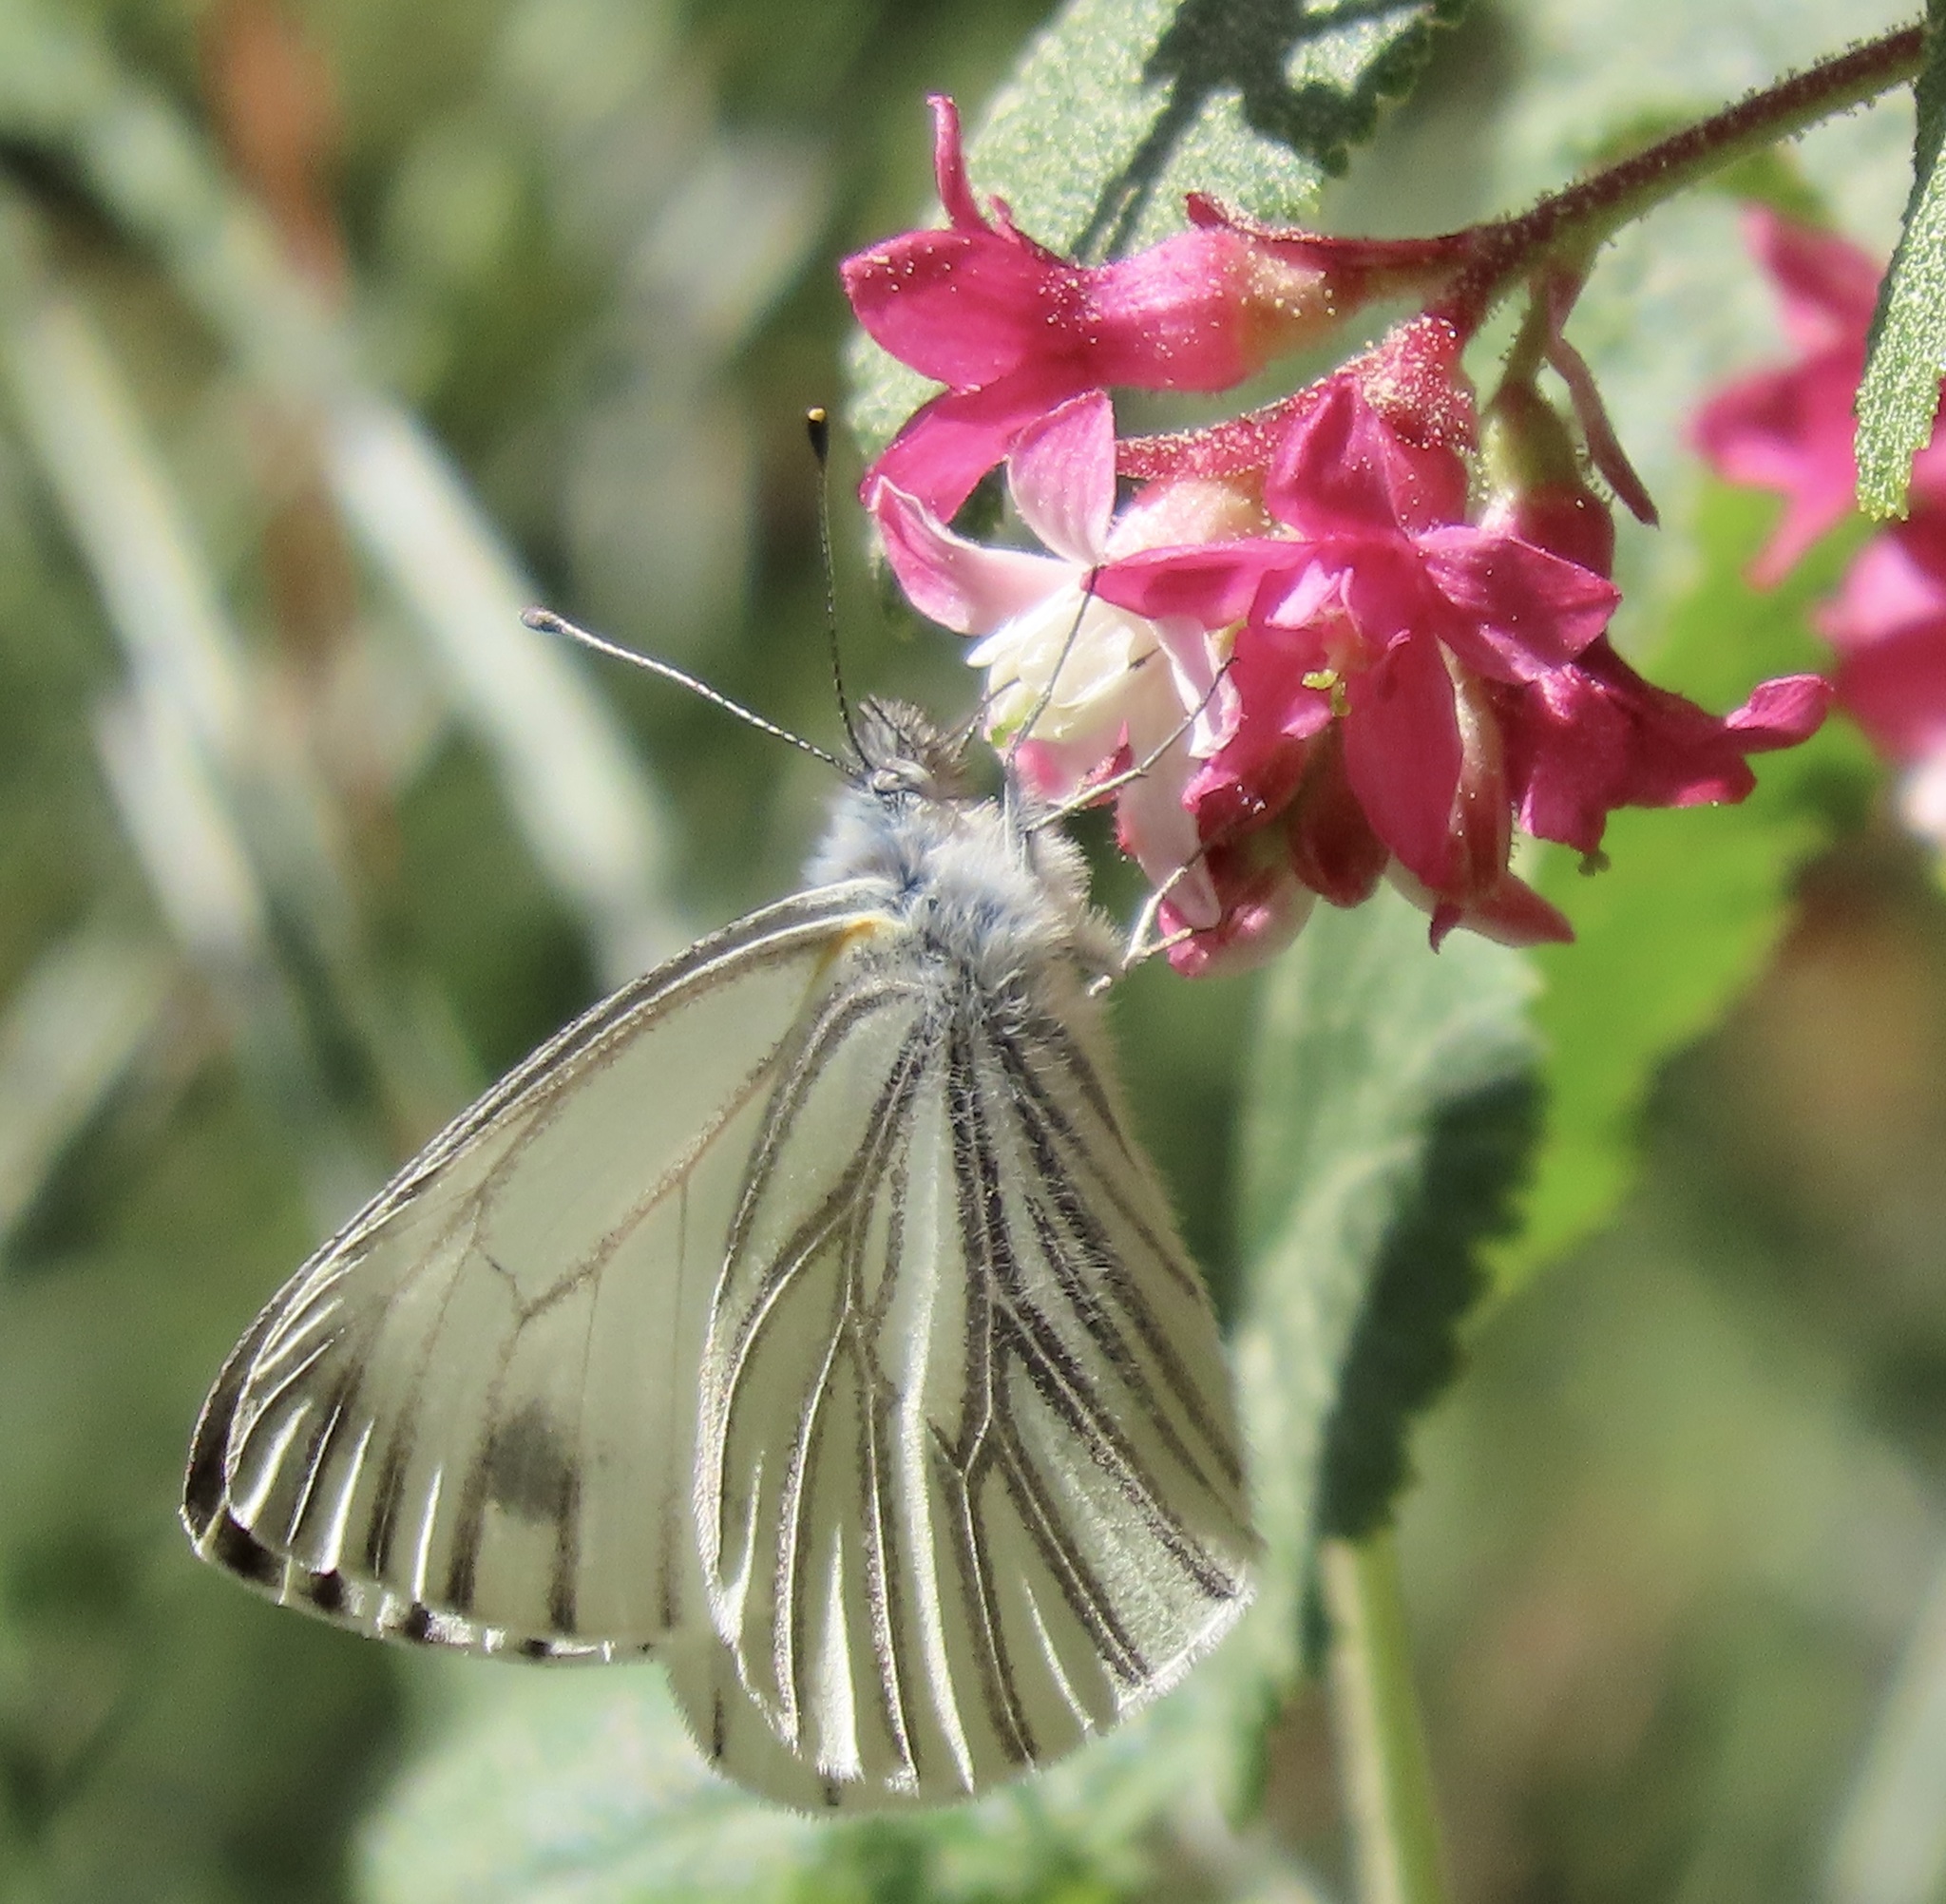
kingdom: Animalia
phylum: Arthropoda
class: Insecta
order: Lepidoptera
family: Pieridae
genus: Pieris
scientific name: Pieris marginalis
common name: Margined white
